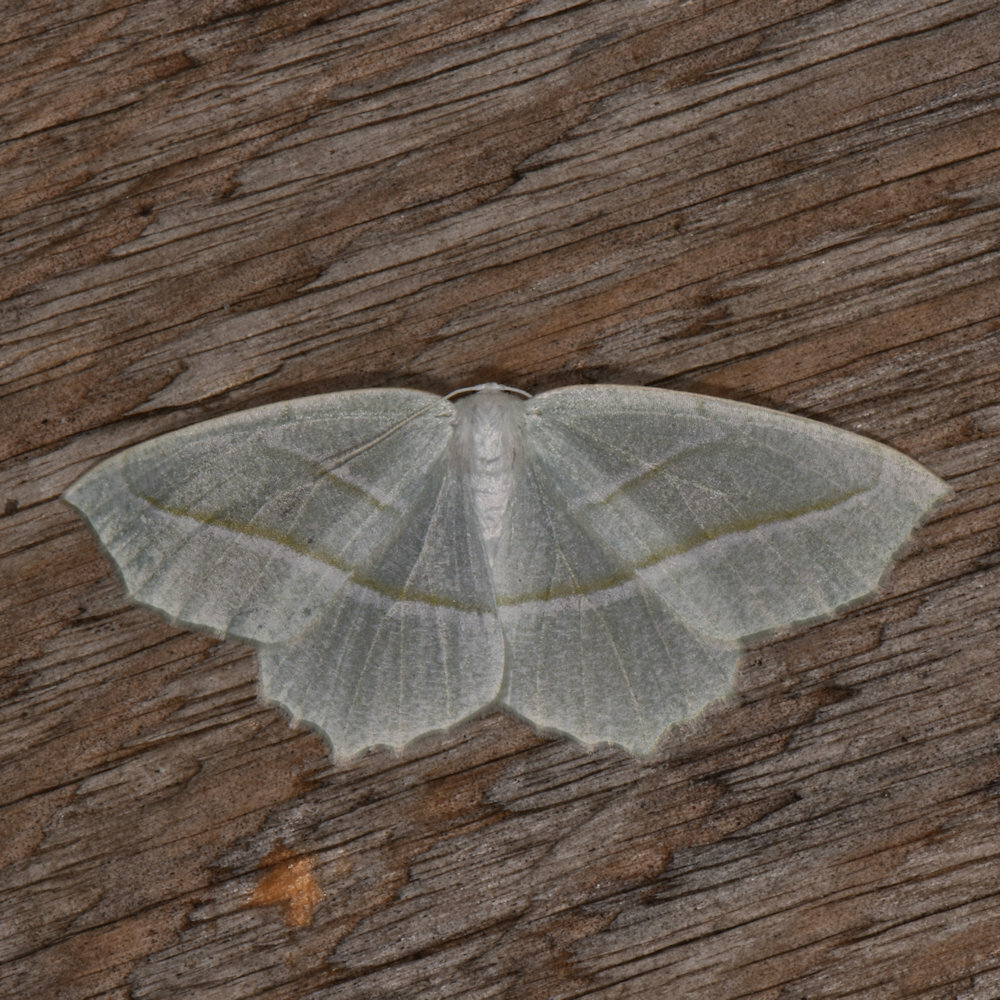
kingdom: Animalia
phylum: Arthropoda
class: Insecta
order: Lepidoptera
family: Geometridae
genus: Campaea
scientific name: Campaea perlata
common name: Fringed looper
